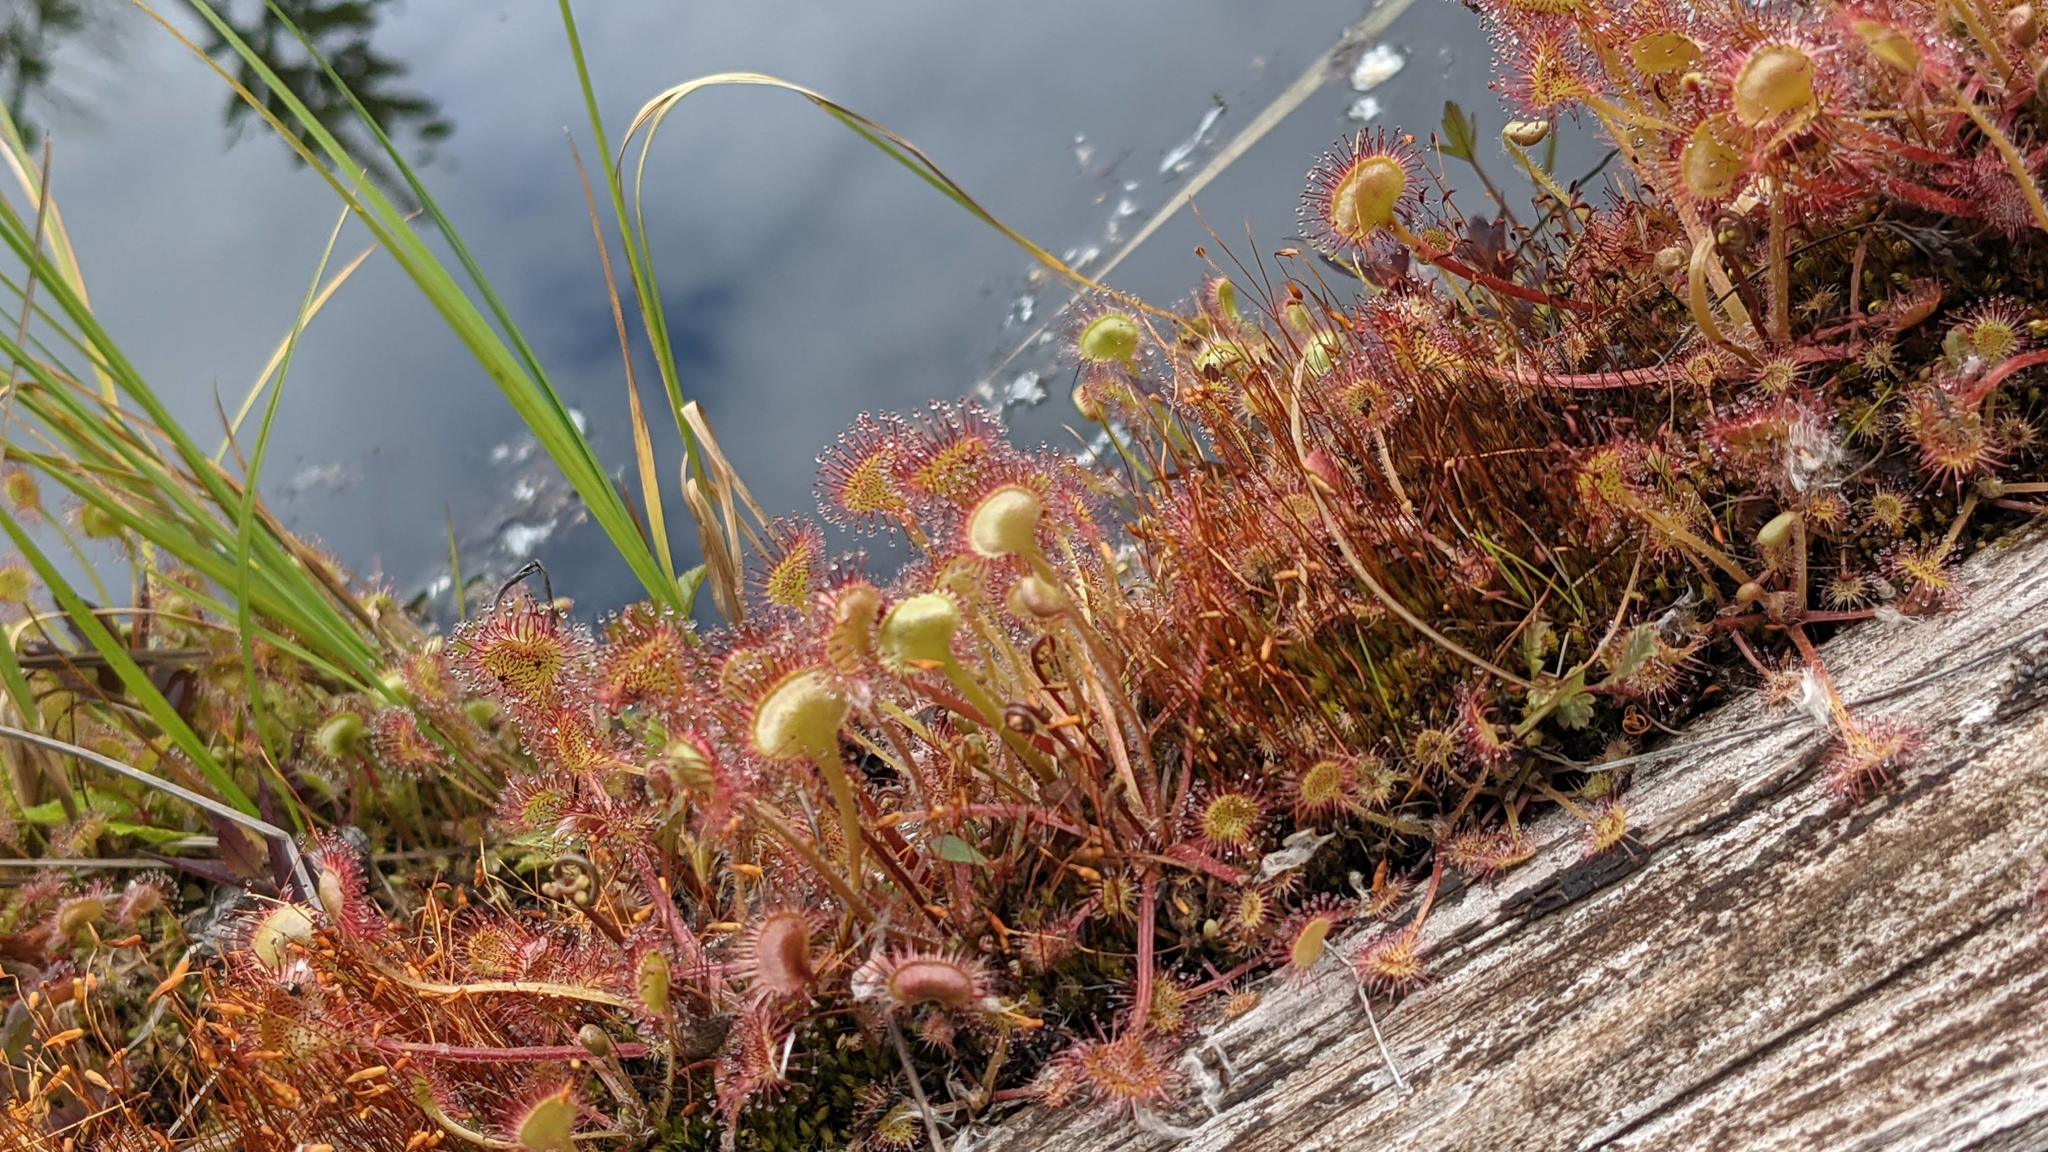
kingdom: Plantae
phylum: Tracheophyta
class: Magnoliopsida
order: Caryophyllales
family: Droseraceae
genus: Drosera
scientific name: Drosera rotundifolia
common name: Round-leaved sundew
